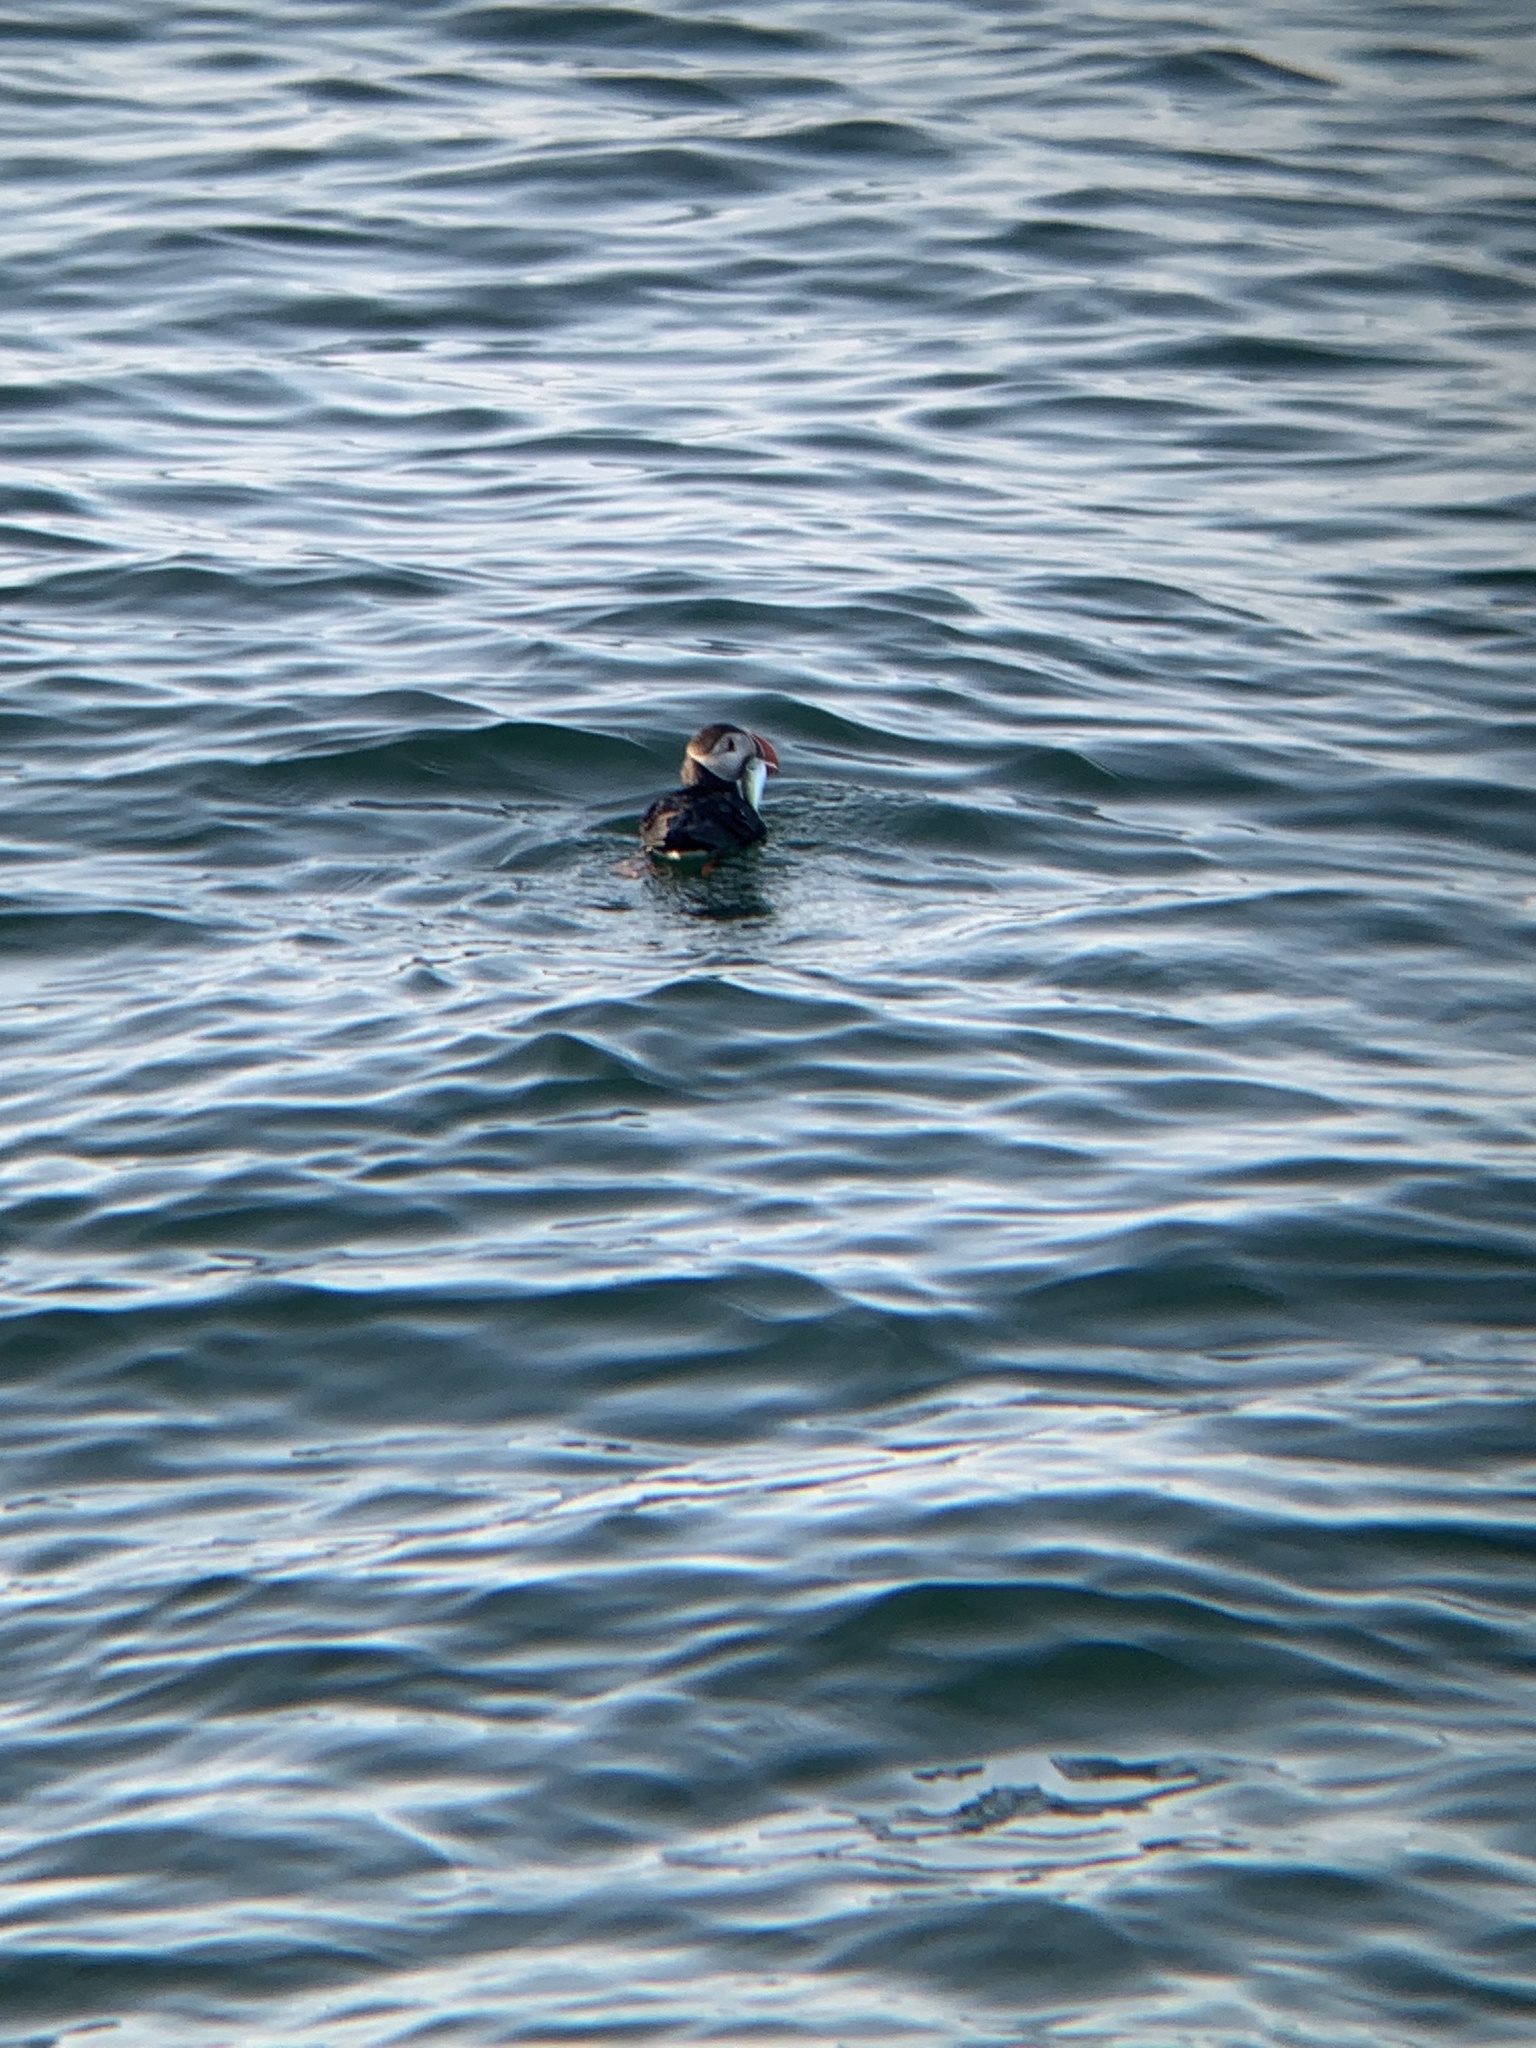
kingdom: Animalia
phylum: Chordata
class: Aves
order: Charadriiformes
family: Alcidae
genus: Fratercula
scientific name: Fratercula arctica
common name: Atlantic puffin
